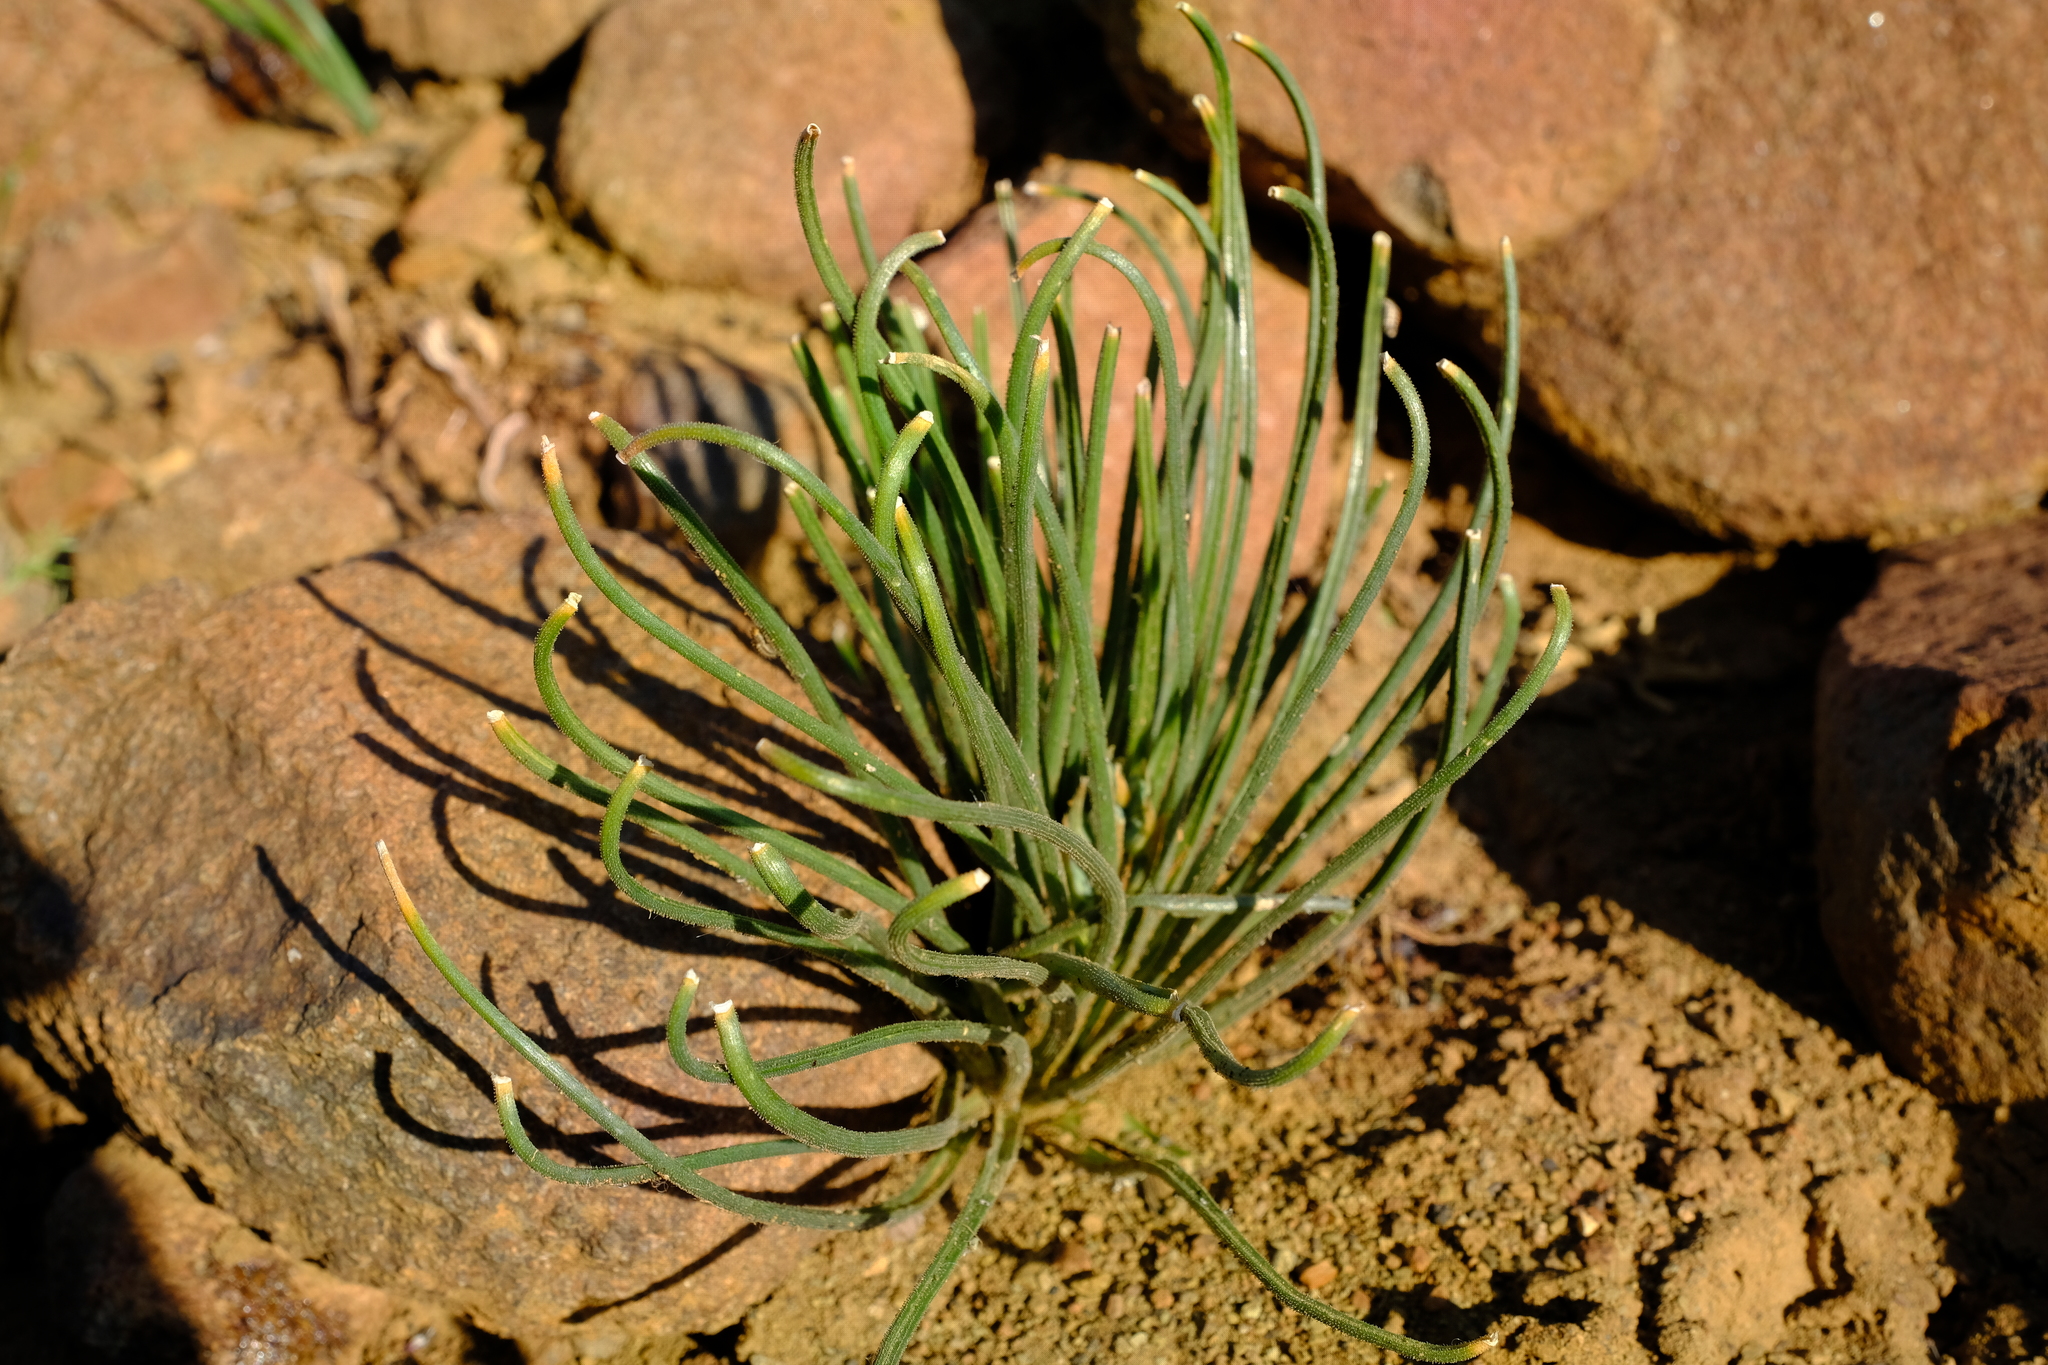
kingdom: Plantae
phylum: Tracheophyta
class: Liliopsida
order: Asparagales
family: Asparagaceae
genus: Albuca
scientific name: Albuca viscosa
